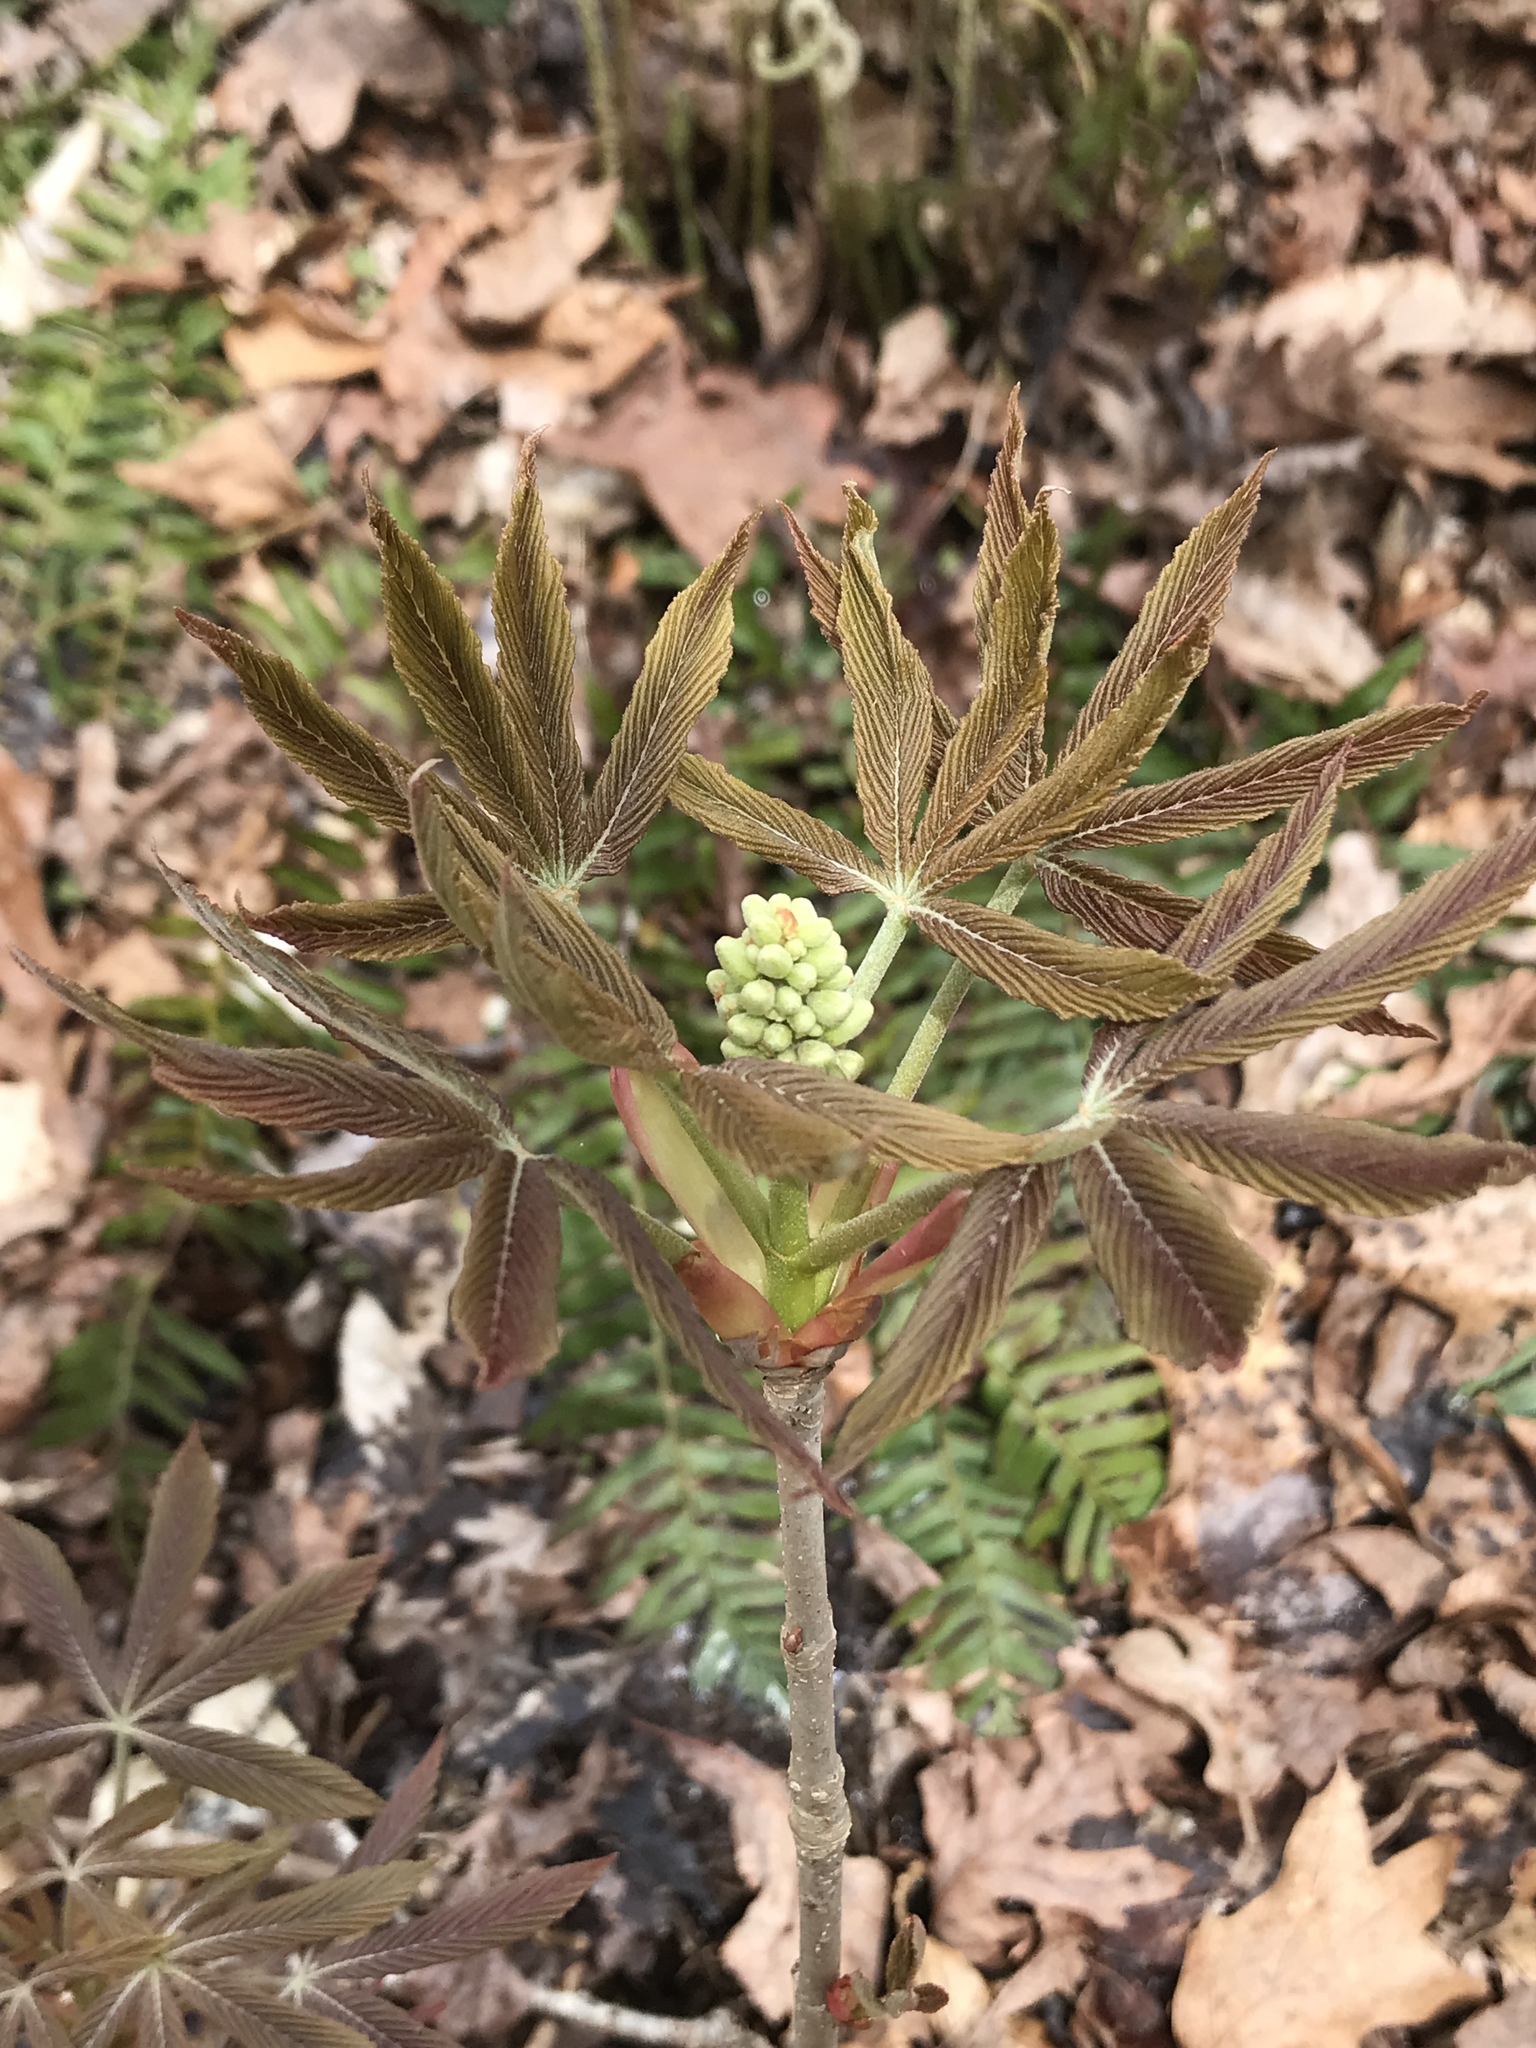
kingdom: Plantae
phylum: Tracheophyta
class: Magnoliopsida
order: Sapindales
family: Sapindaceae
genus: Aesculus
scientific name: Aesculus sylvatica
